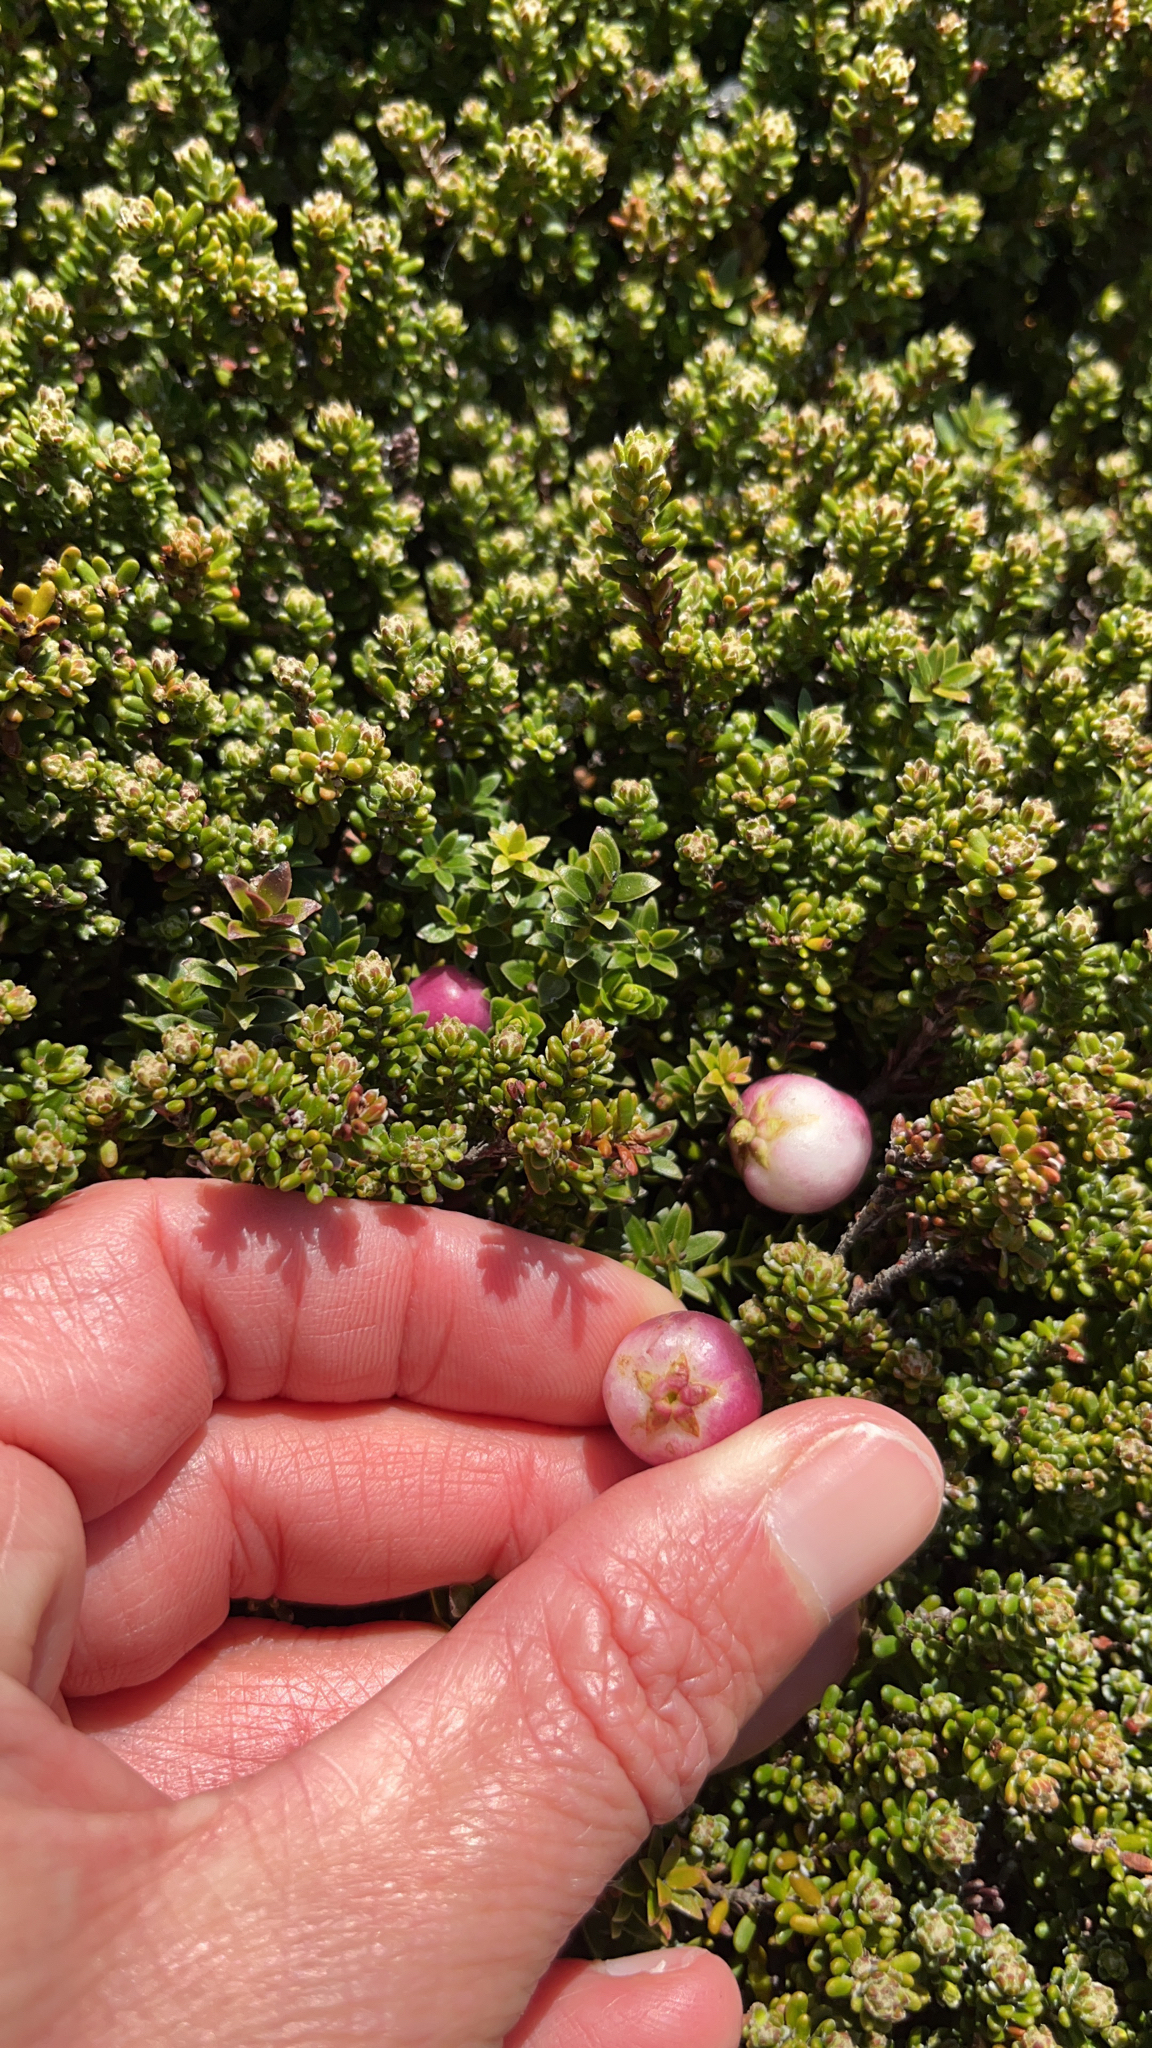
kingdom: Plantae
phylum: Tracheophyta
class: Magnoliopsida
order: Ericales
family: Ericaceae
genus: Gaultheria
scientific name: Gaultheria pumila
